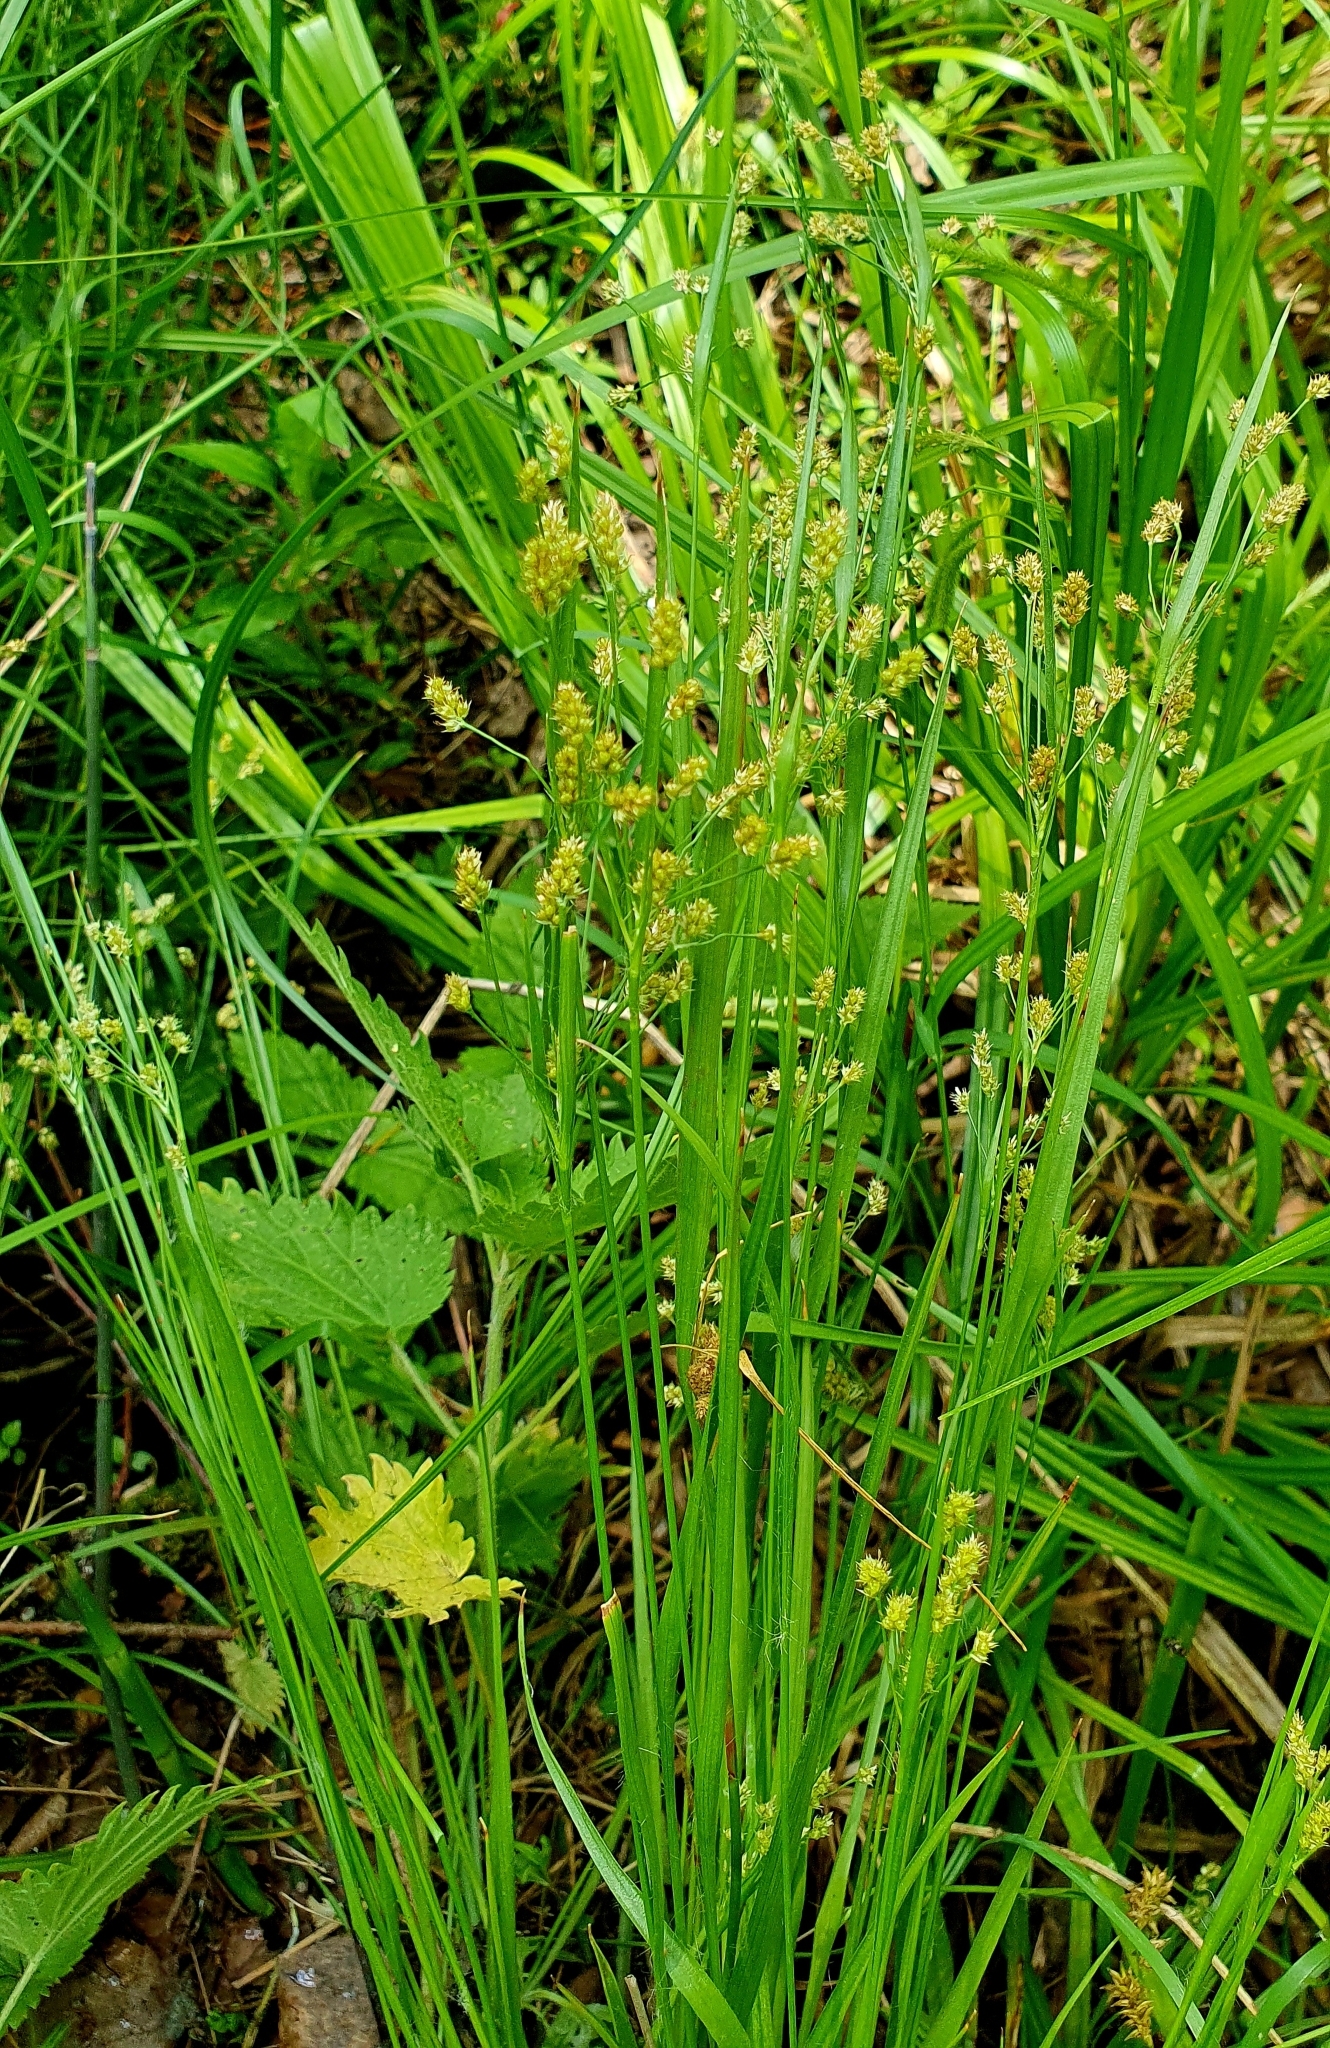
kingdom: Plantae
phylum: Tracheophyta
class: Liliopsida
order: Poales
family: Juncaceae
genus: Luzula
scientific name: Luzula pallescens
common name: Fen wood-rush
